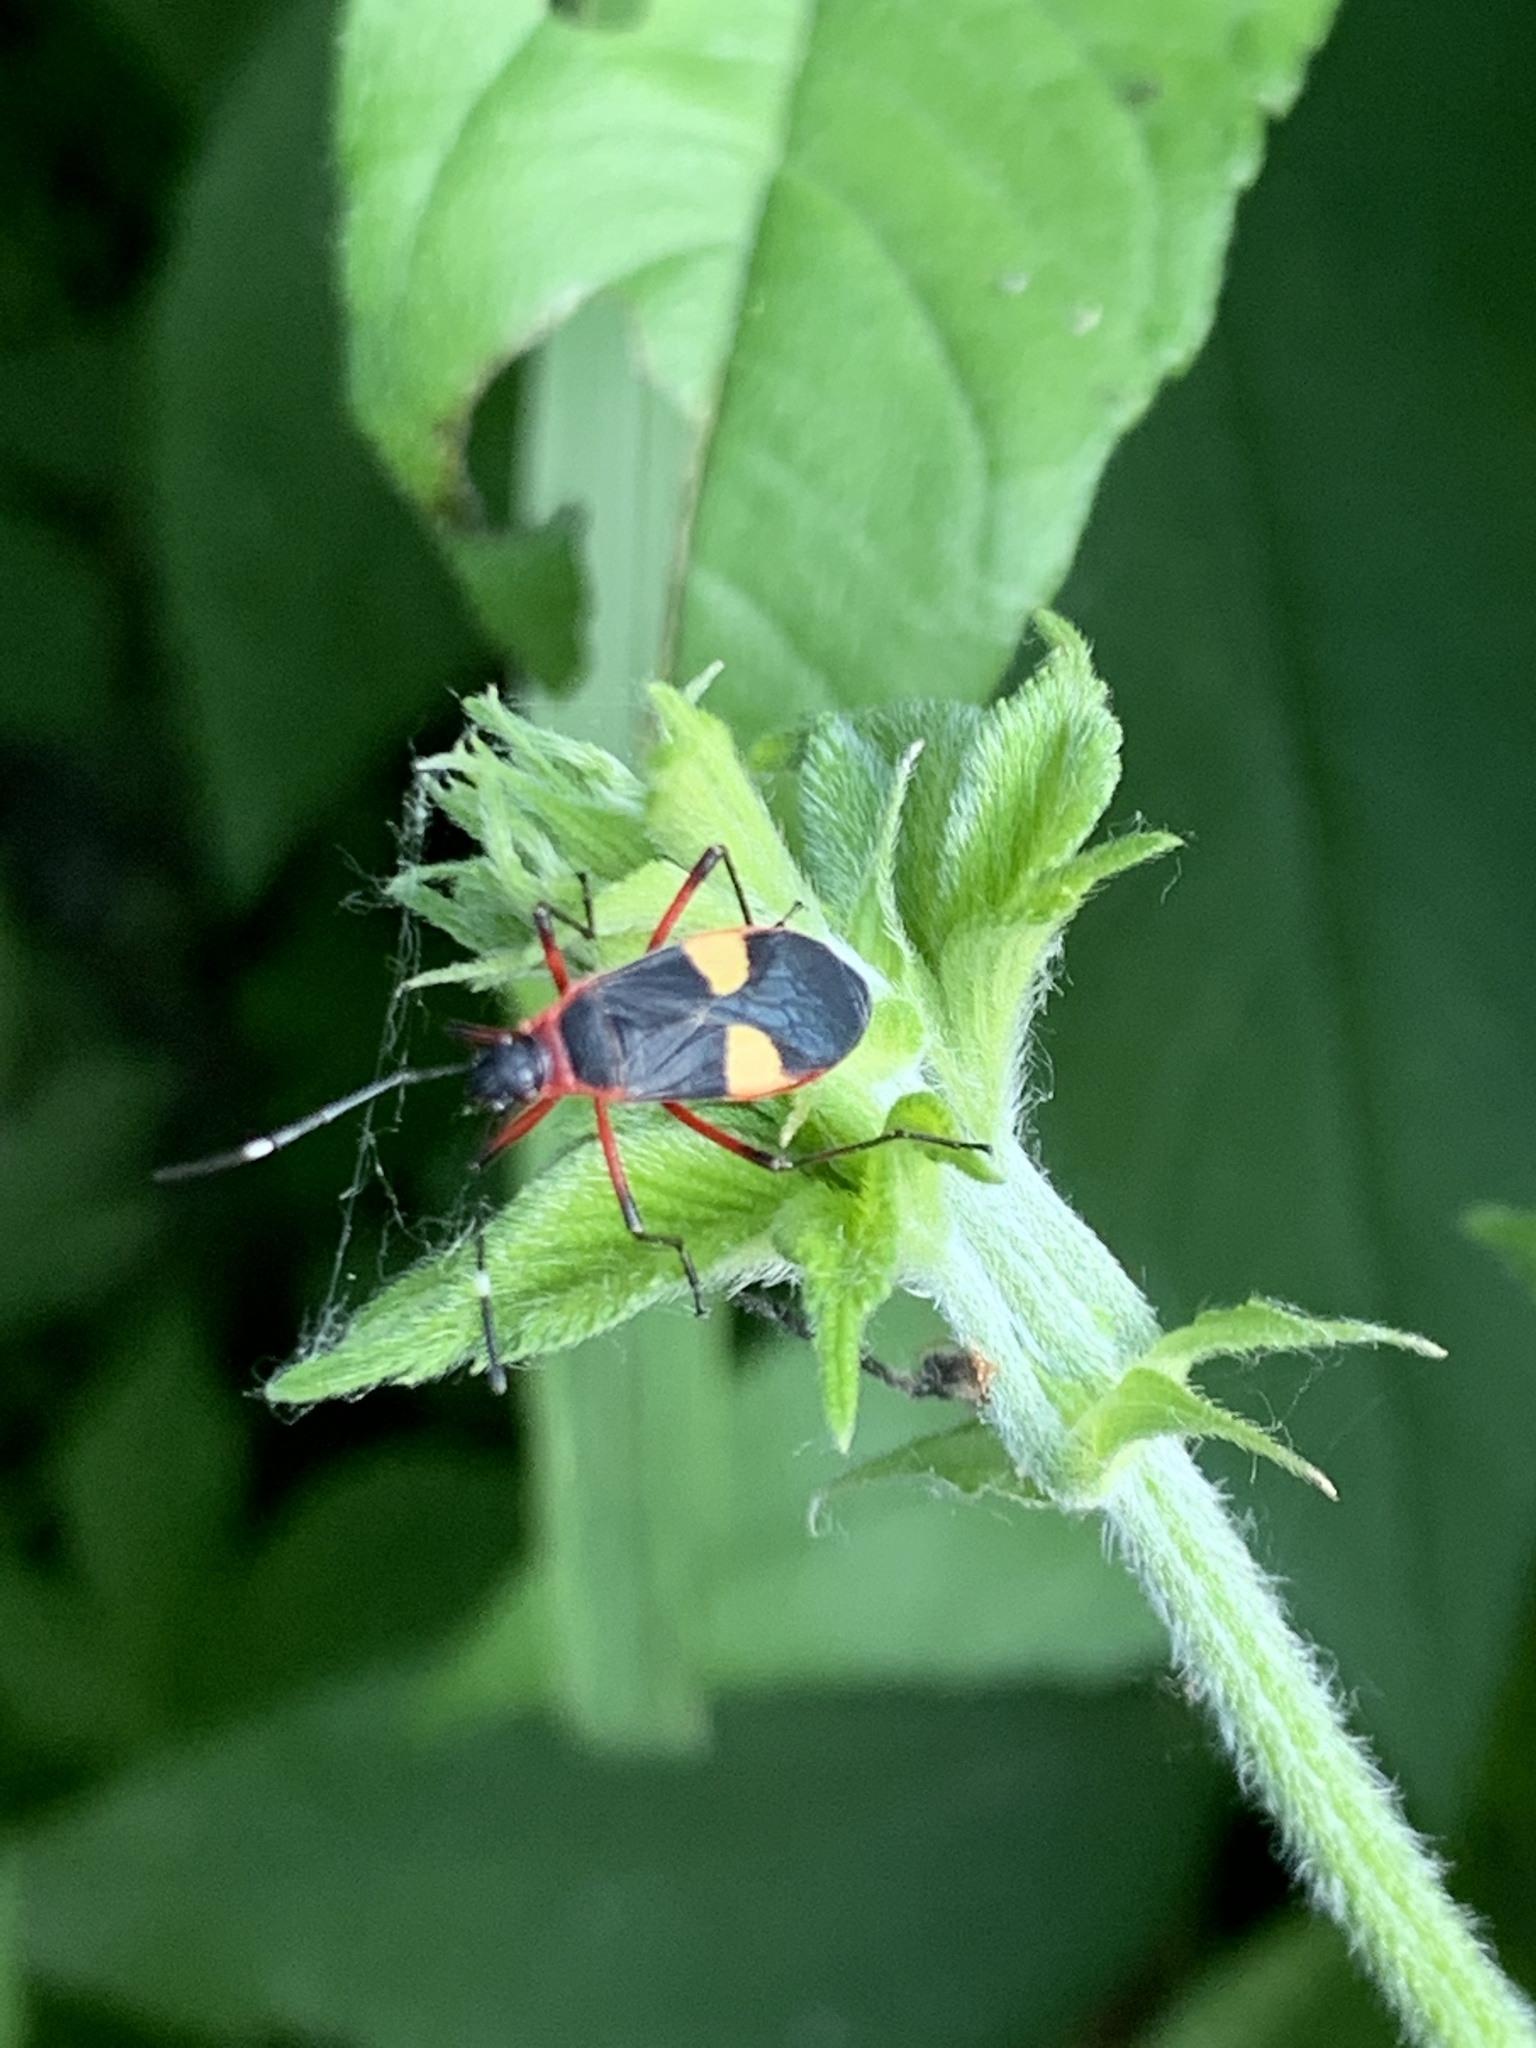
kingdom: Animalia
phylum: Arthropoda
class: Insecta
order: Hemiptera
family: Pyrrhocoridae
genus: Dysdercus
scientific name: Dysdercus albofasciatus
